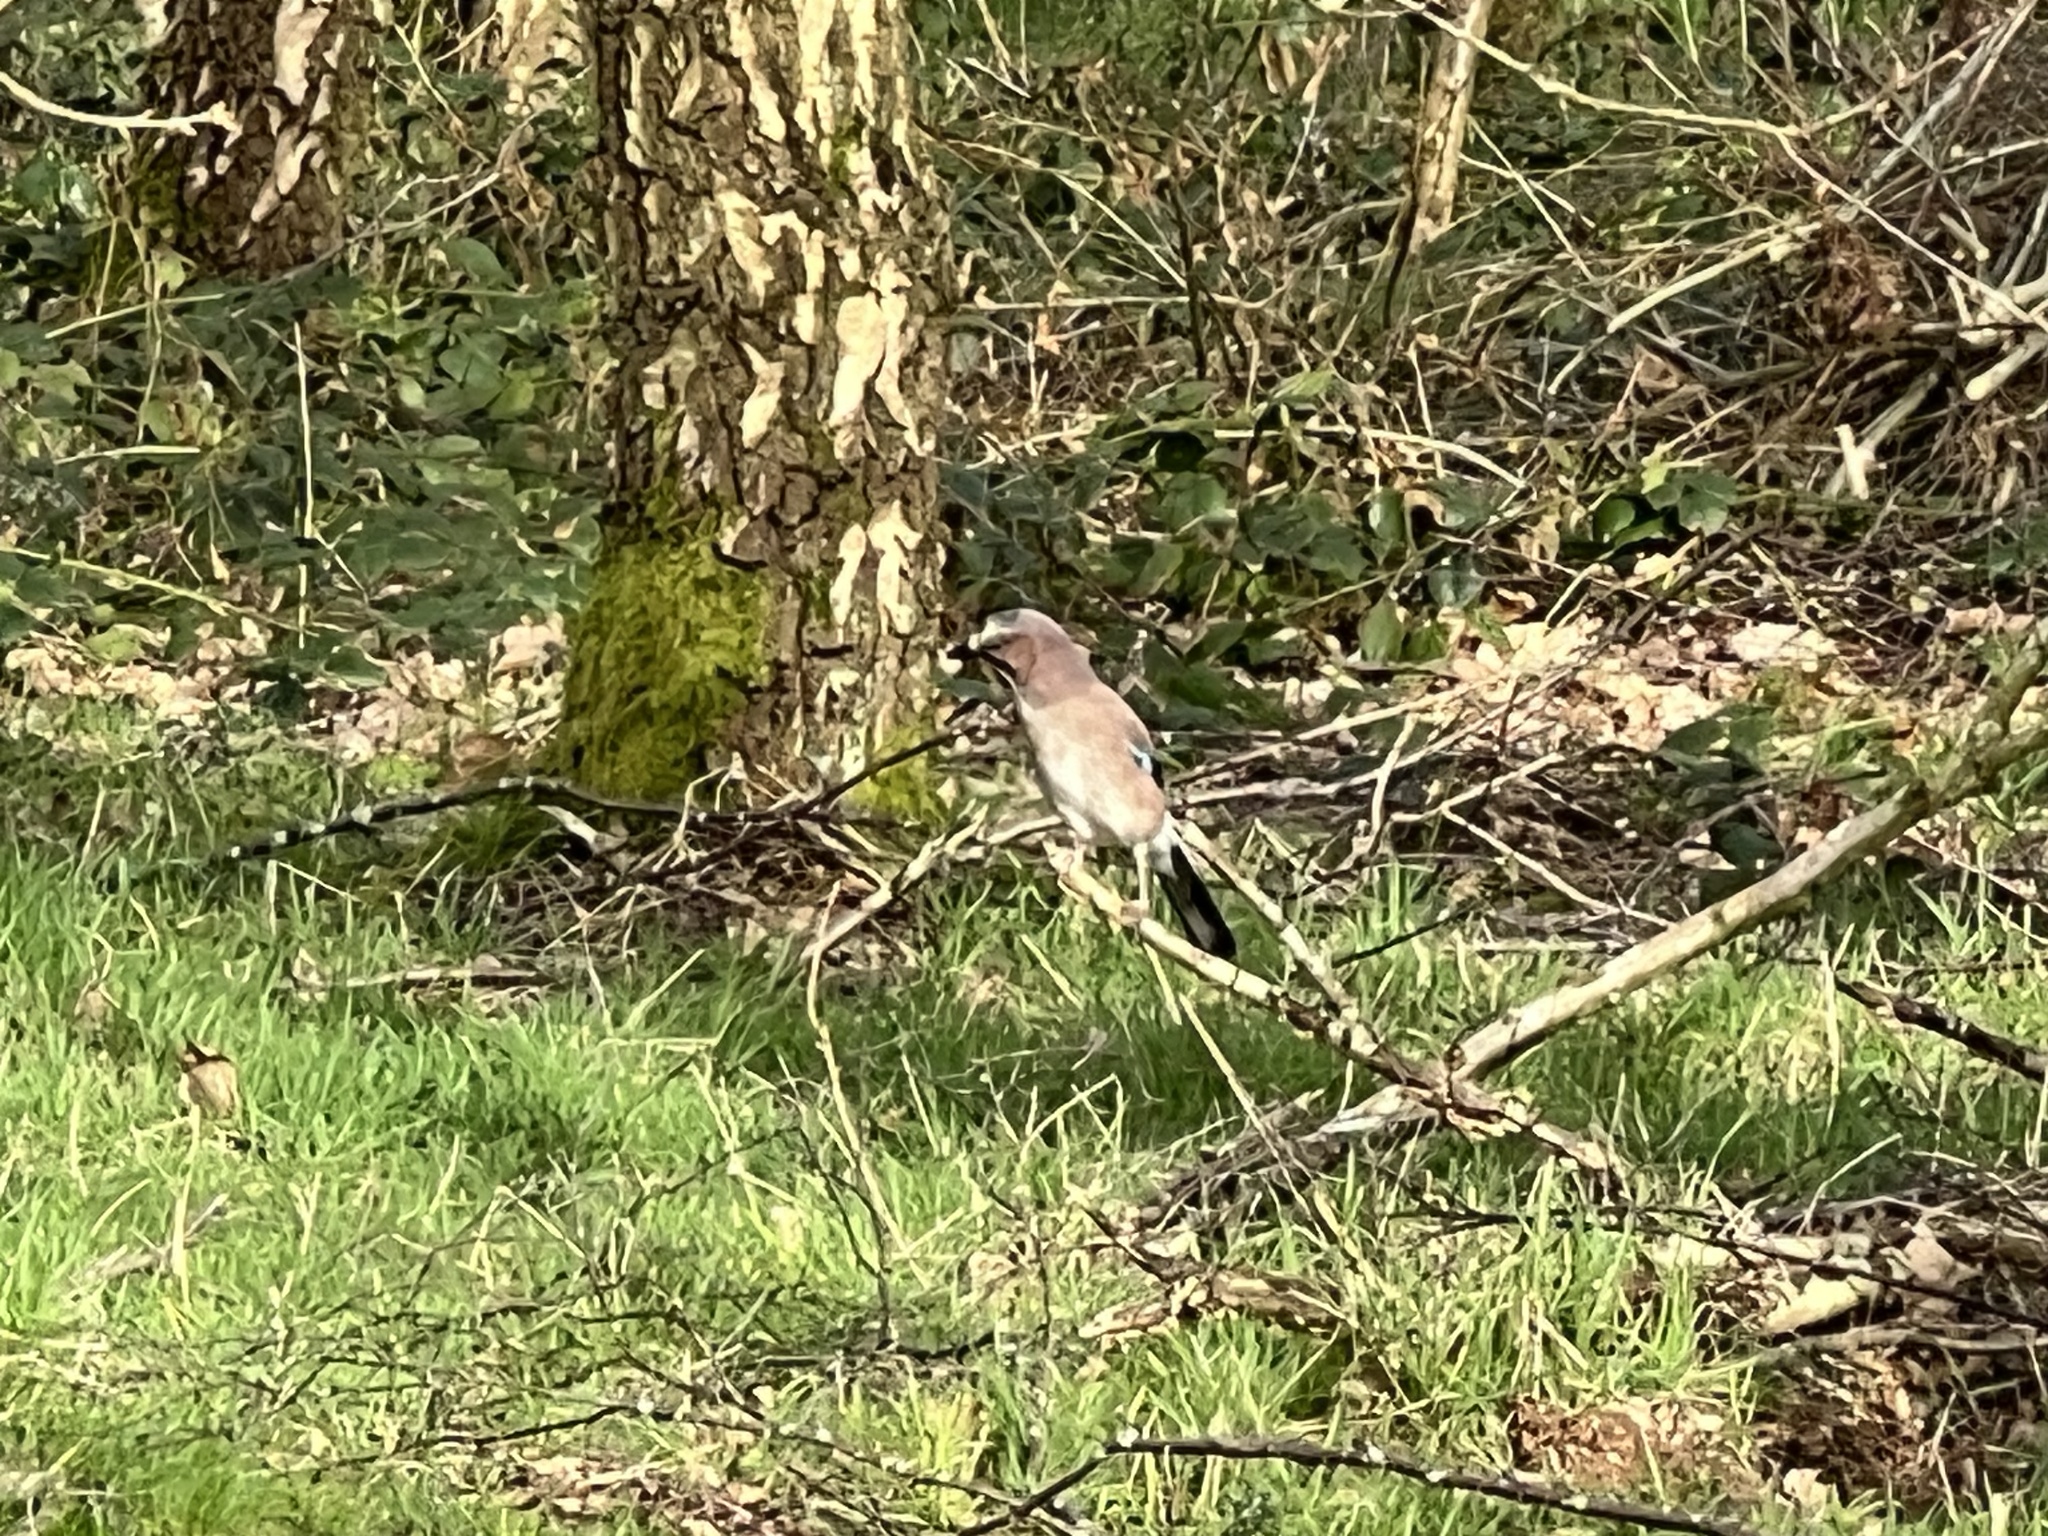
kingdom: Animalia
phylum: Chordata
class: Aves
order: Passeriformes
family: Corvidae
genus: Garrulus
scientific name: Garrulus glandarius
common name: Eurasian jay
